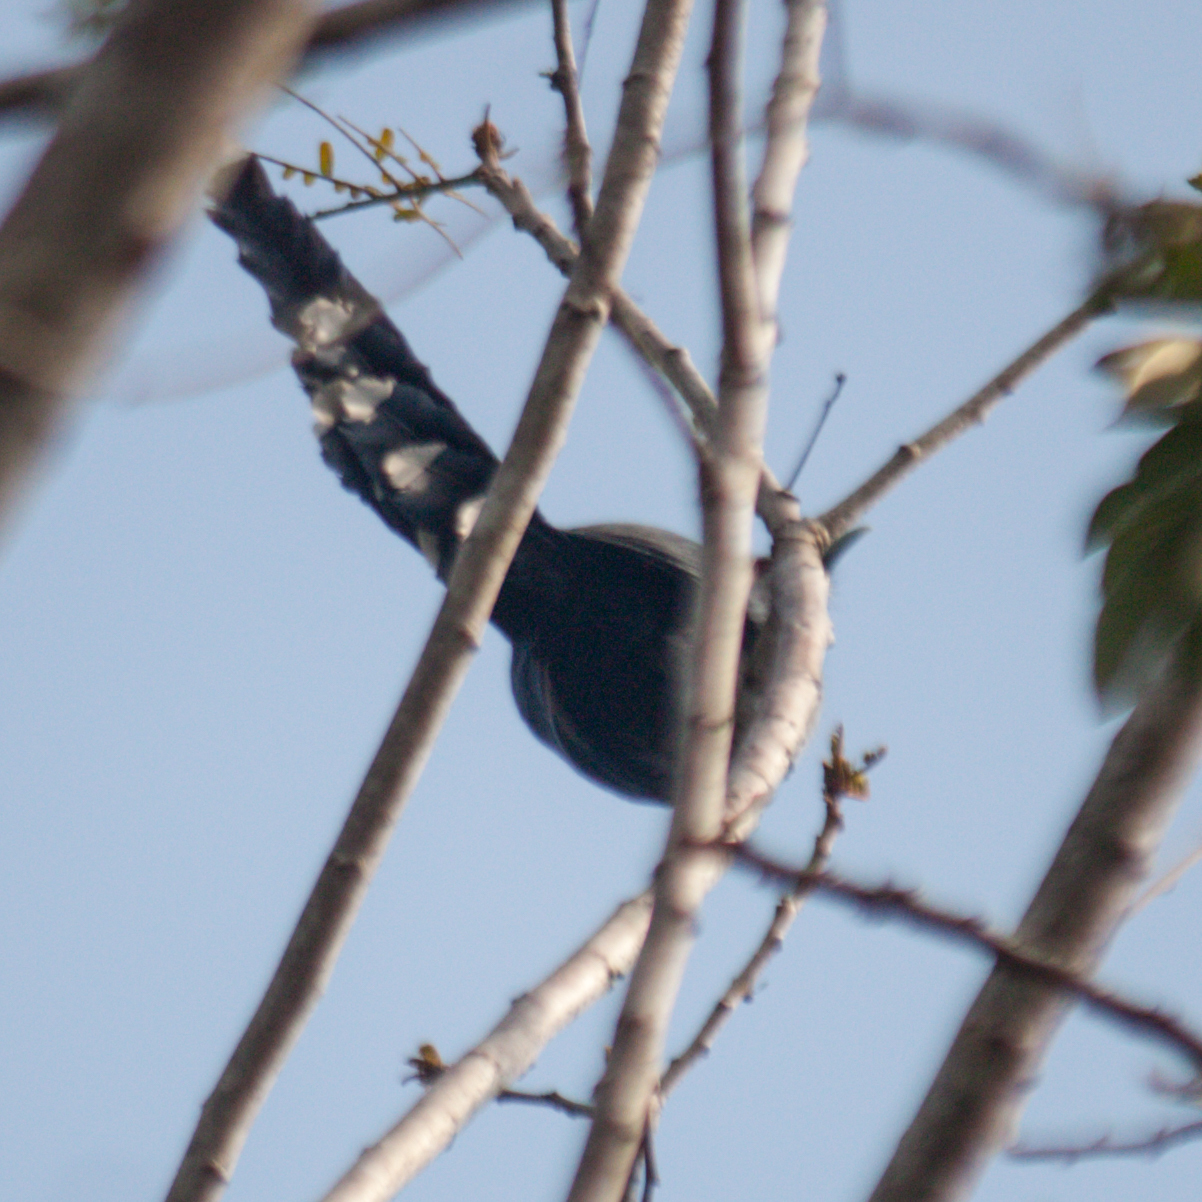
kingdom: Animalia
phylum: Chordata
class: Aves
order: Cuculiformes
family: Cuculidae
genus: Rhopodytes
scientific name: Rhopodytes tristis
